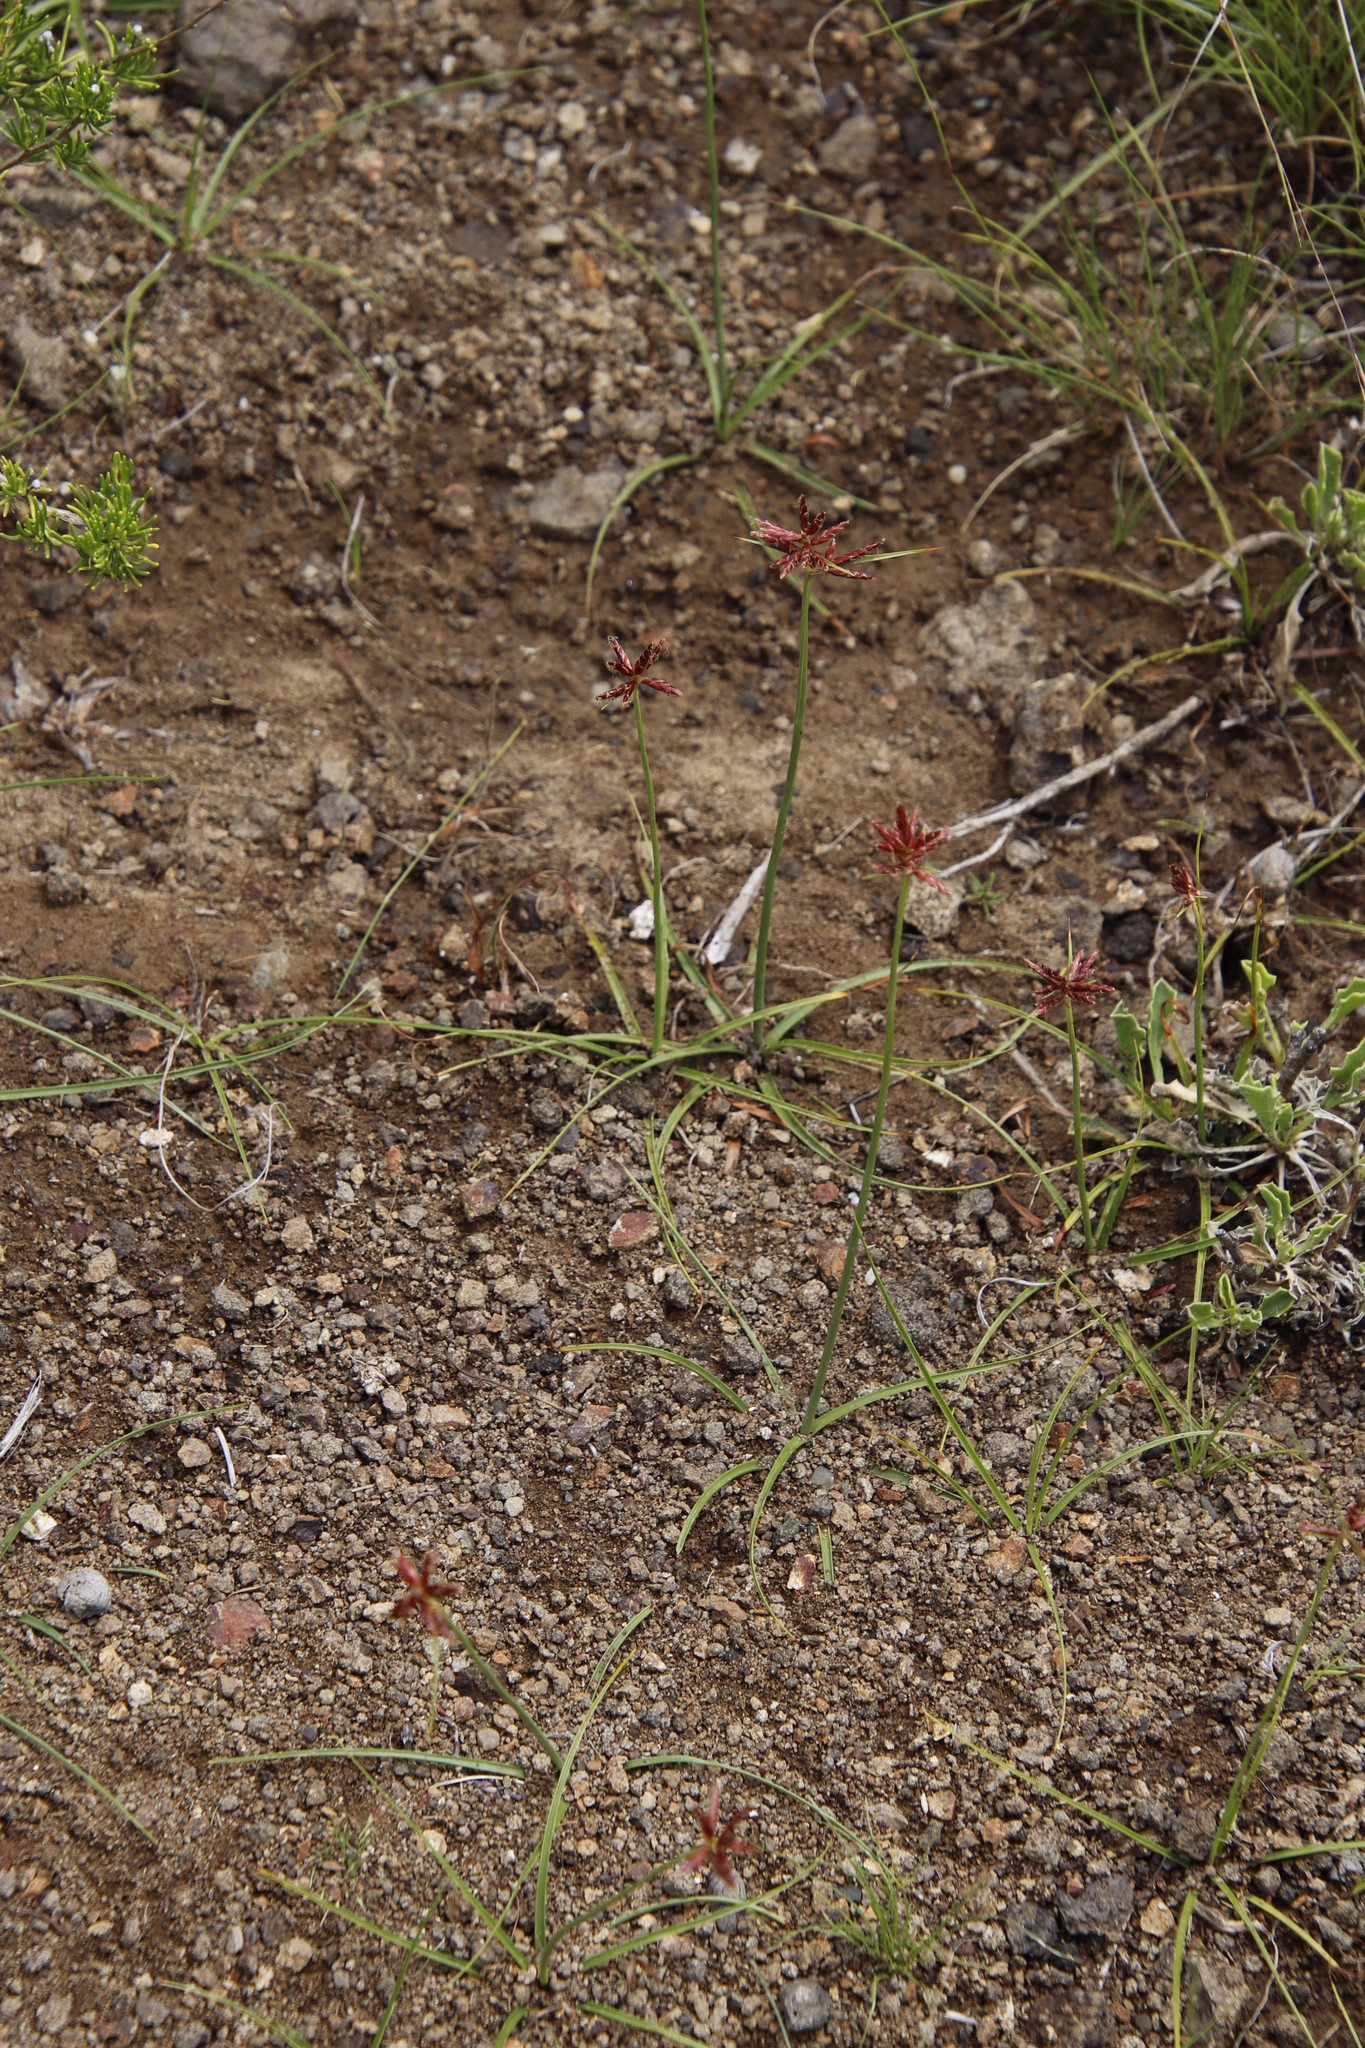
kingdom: Plantae
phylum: Tracheophyta
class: Liliopsida
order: Poales
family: Cyperaceae
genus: Cyperus
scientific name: Cyperus usitatus
